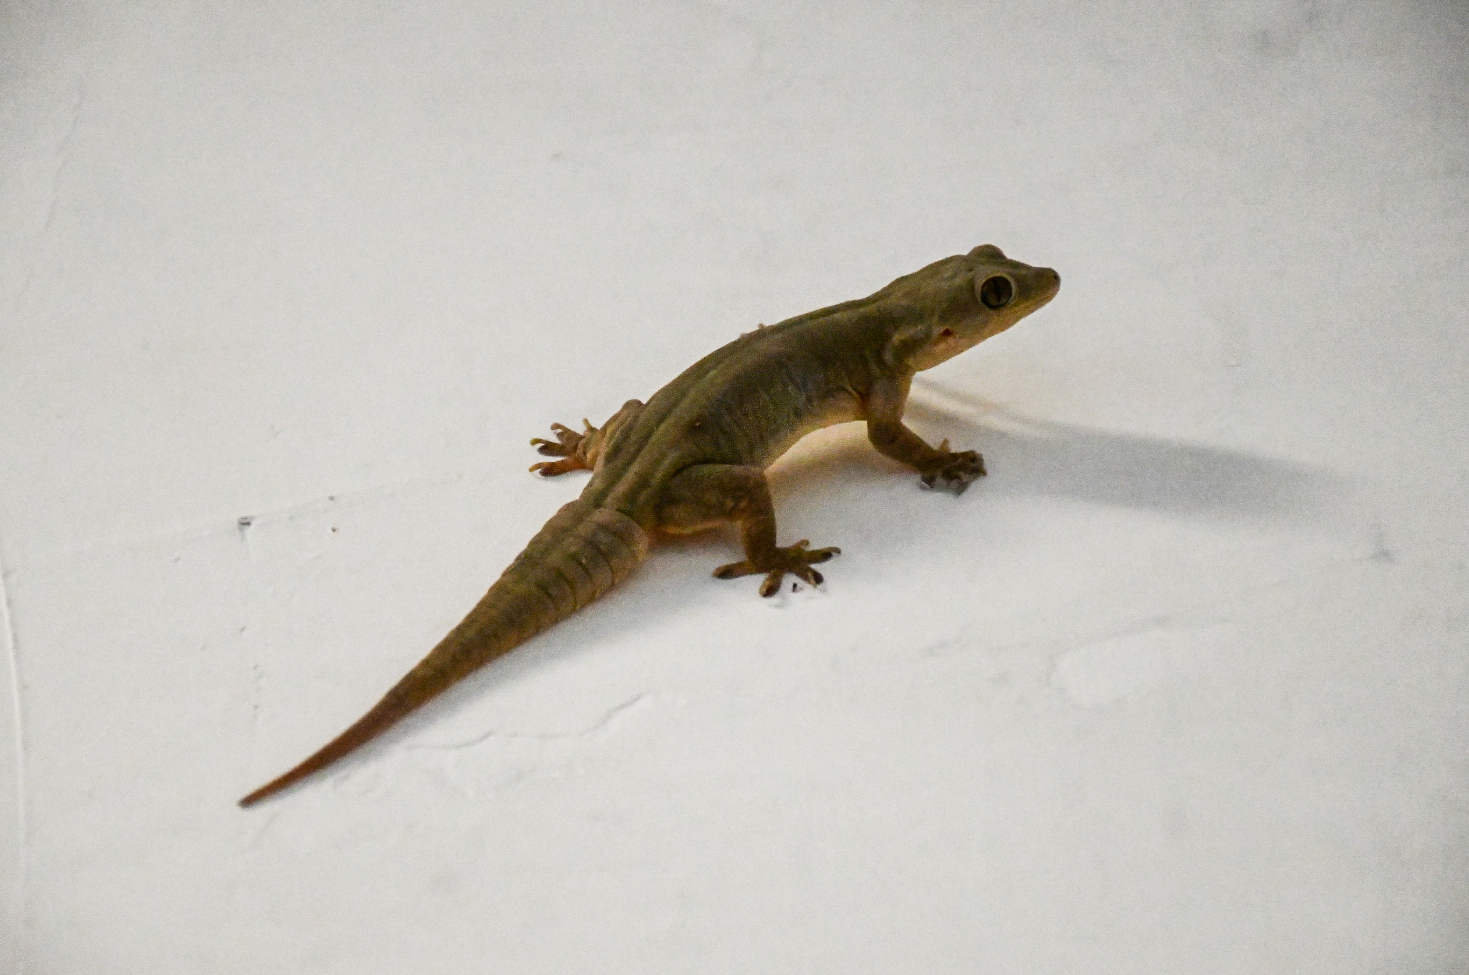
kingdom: Animalia
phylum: Chordata
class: Squamata
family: Gekkonidae
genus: Hemidactylus
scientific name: Hemidactylus flaviviridis
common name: Northern house gecko
